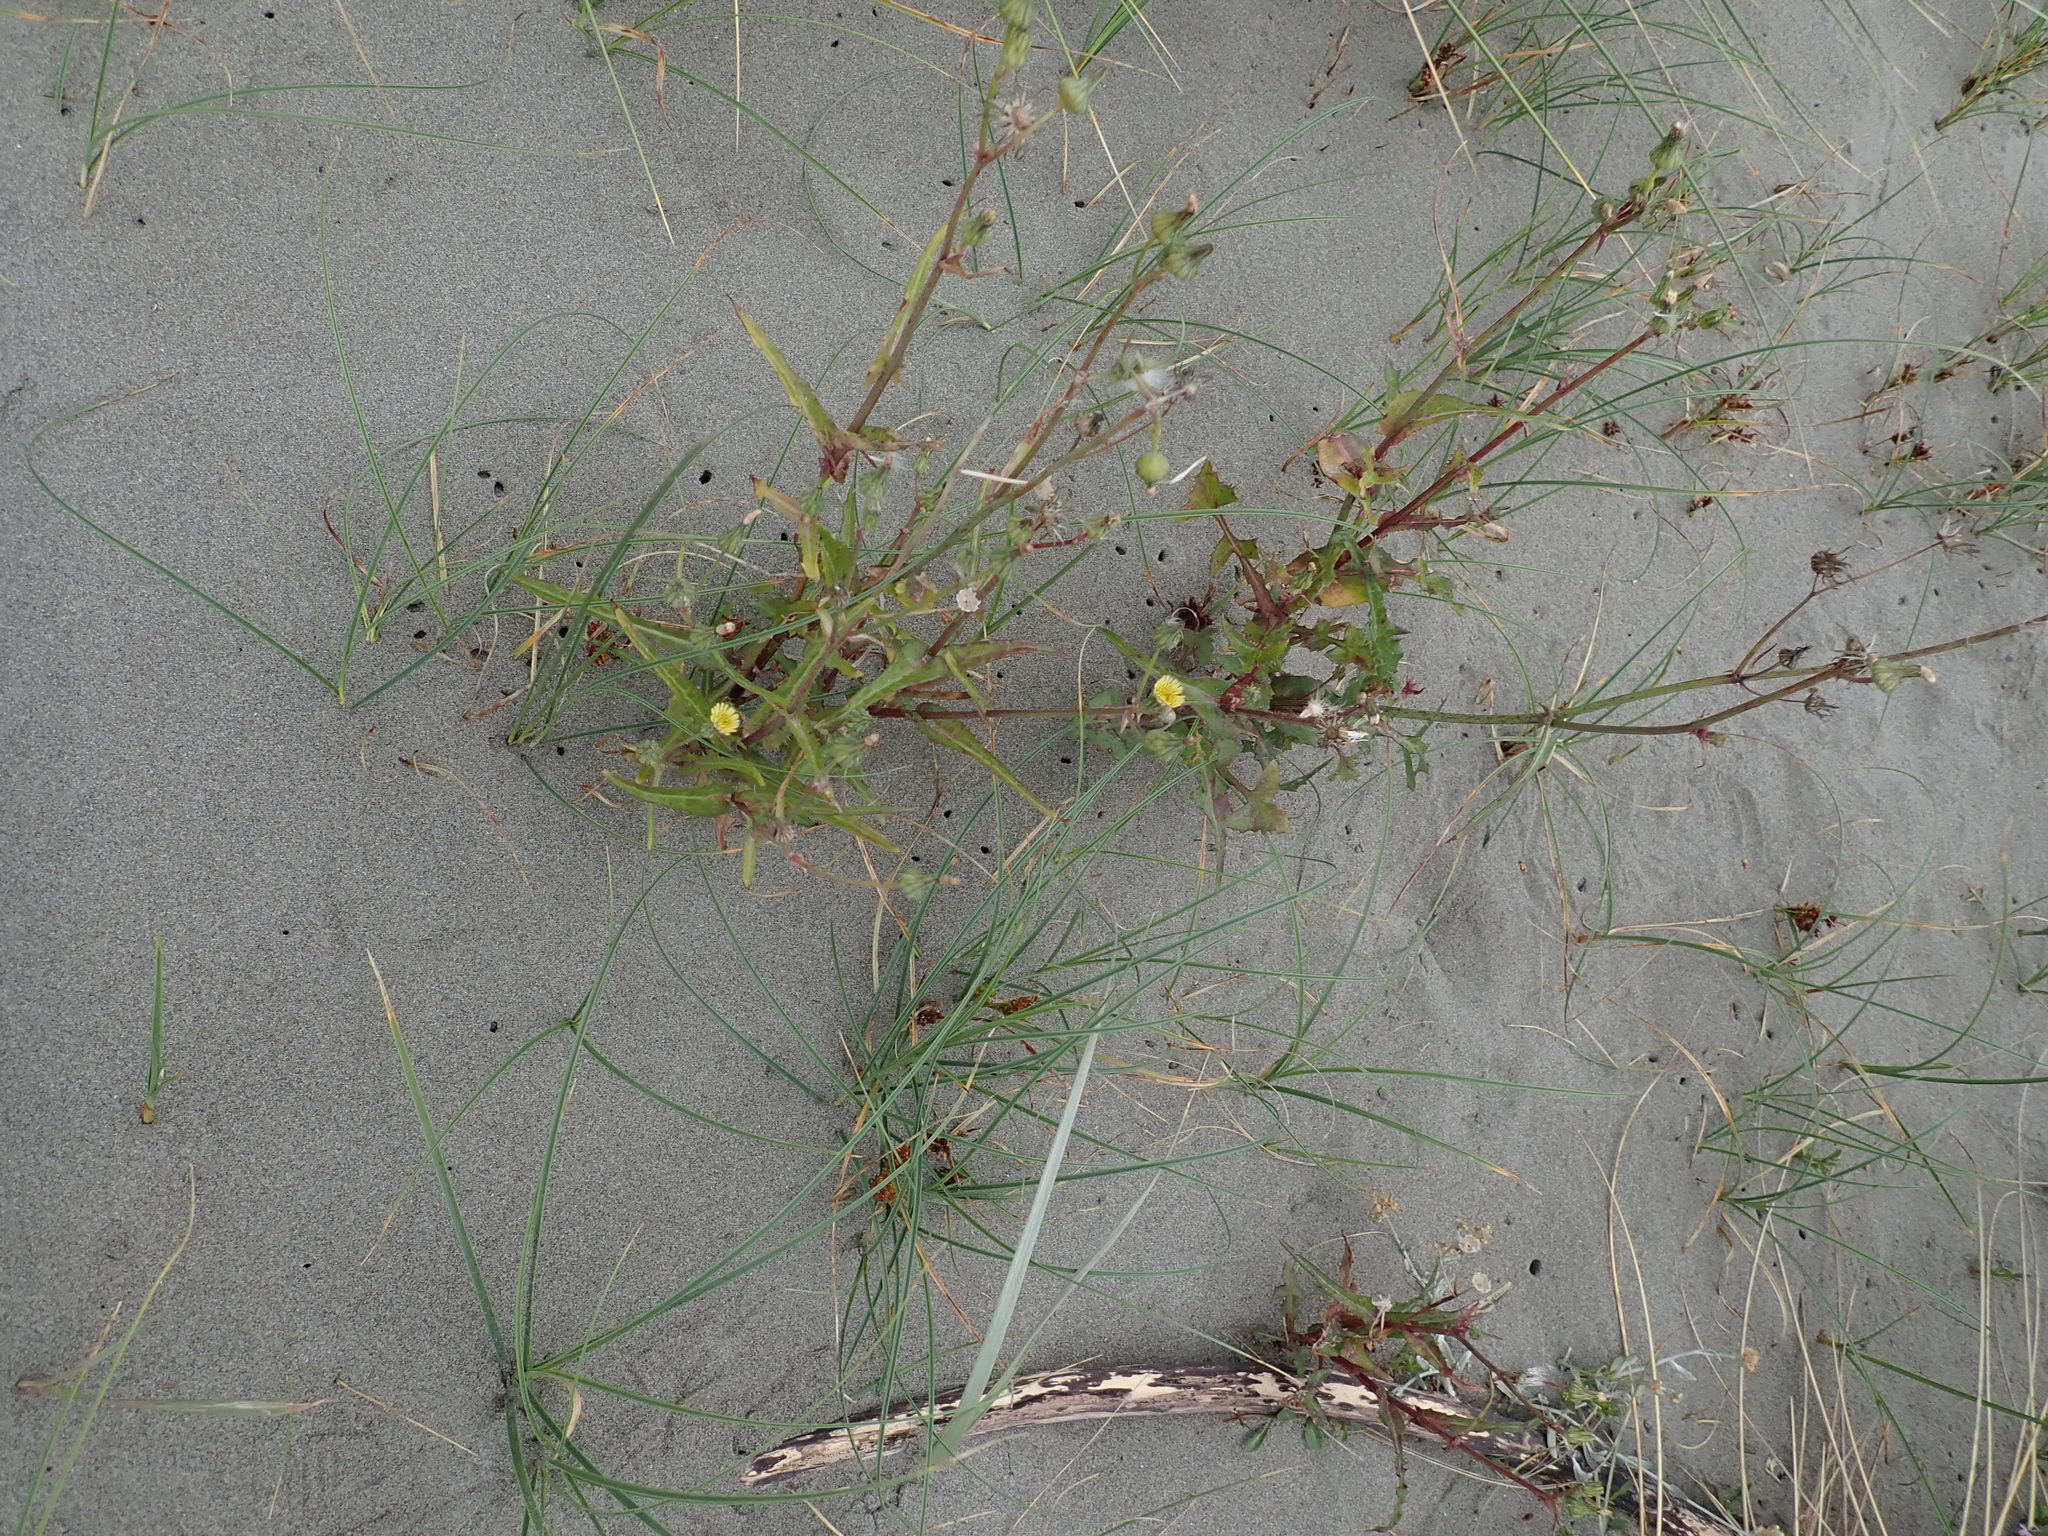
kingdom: Plantae
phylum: Tracheophyta
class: Magnoliopsida
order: Asterales
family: Asteraceae
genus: Sonchus
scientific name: Sonchus oleraceus
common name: Common sowthistle
